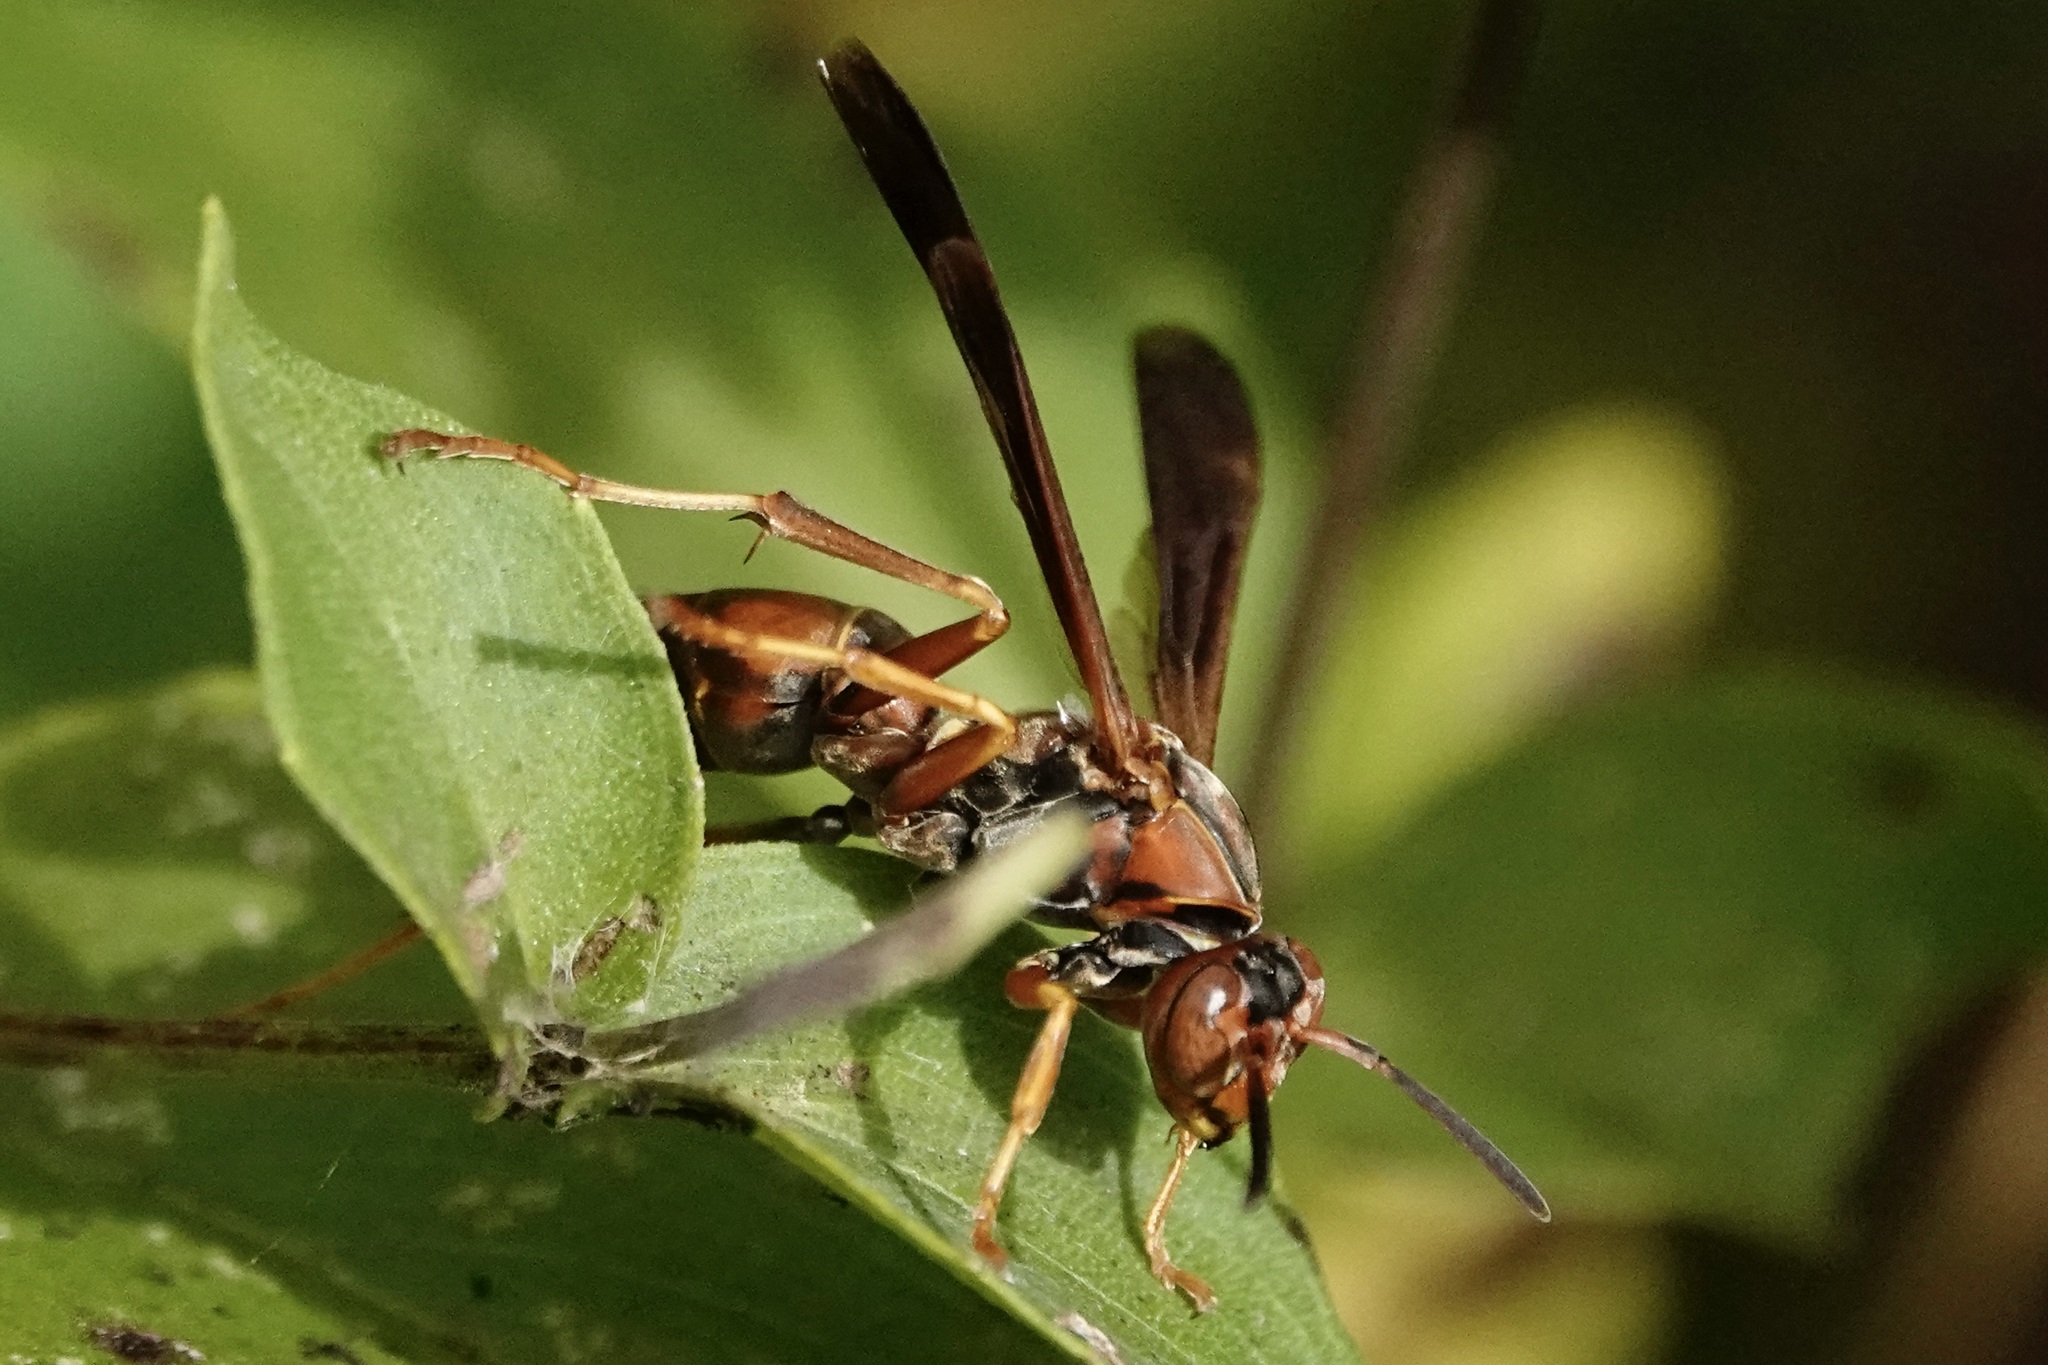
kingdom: Animalia
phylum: Arthropoda
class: Insecta
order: Hymenoptera
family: Eumenidae
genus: Polistes
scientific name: Polistes fuscatus
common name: Dark paper wasp
